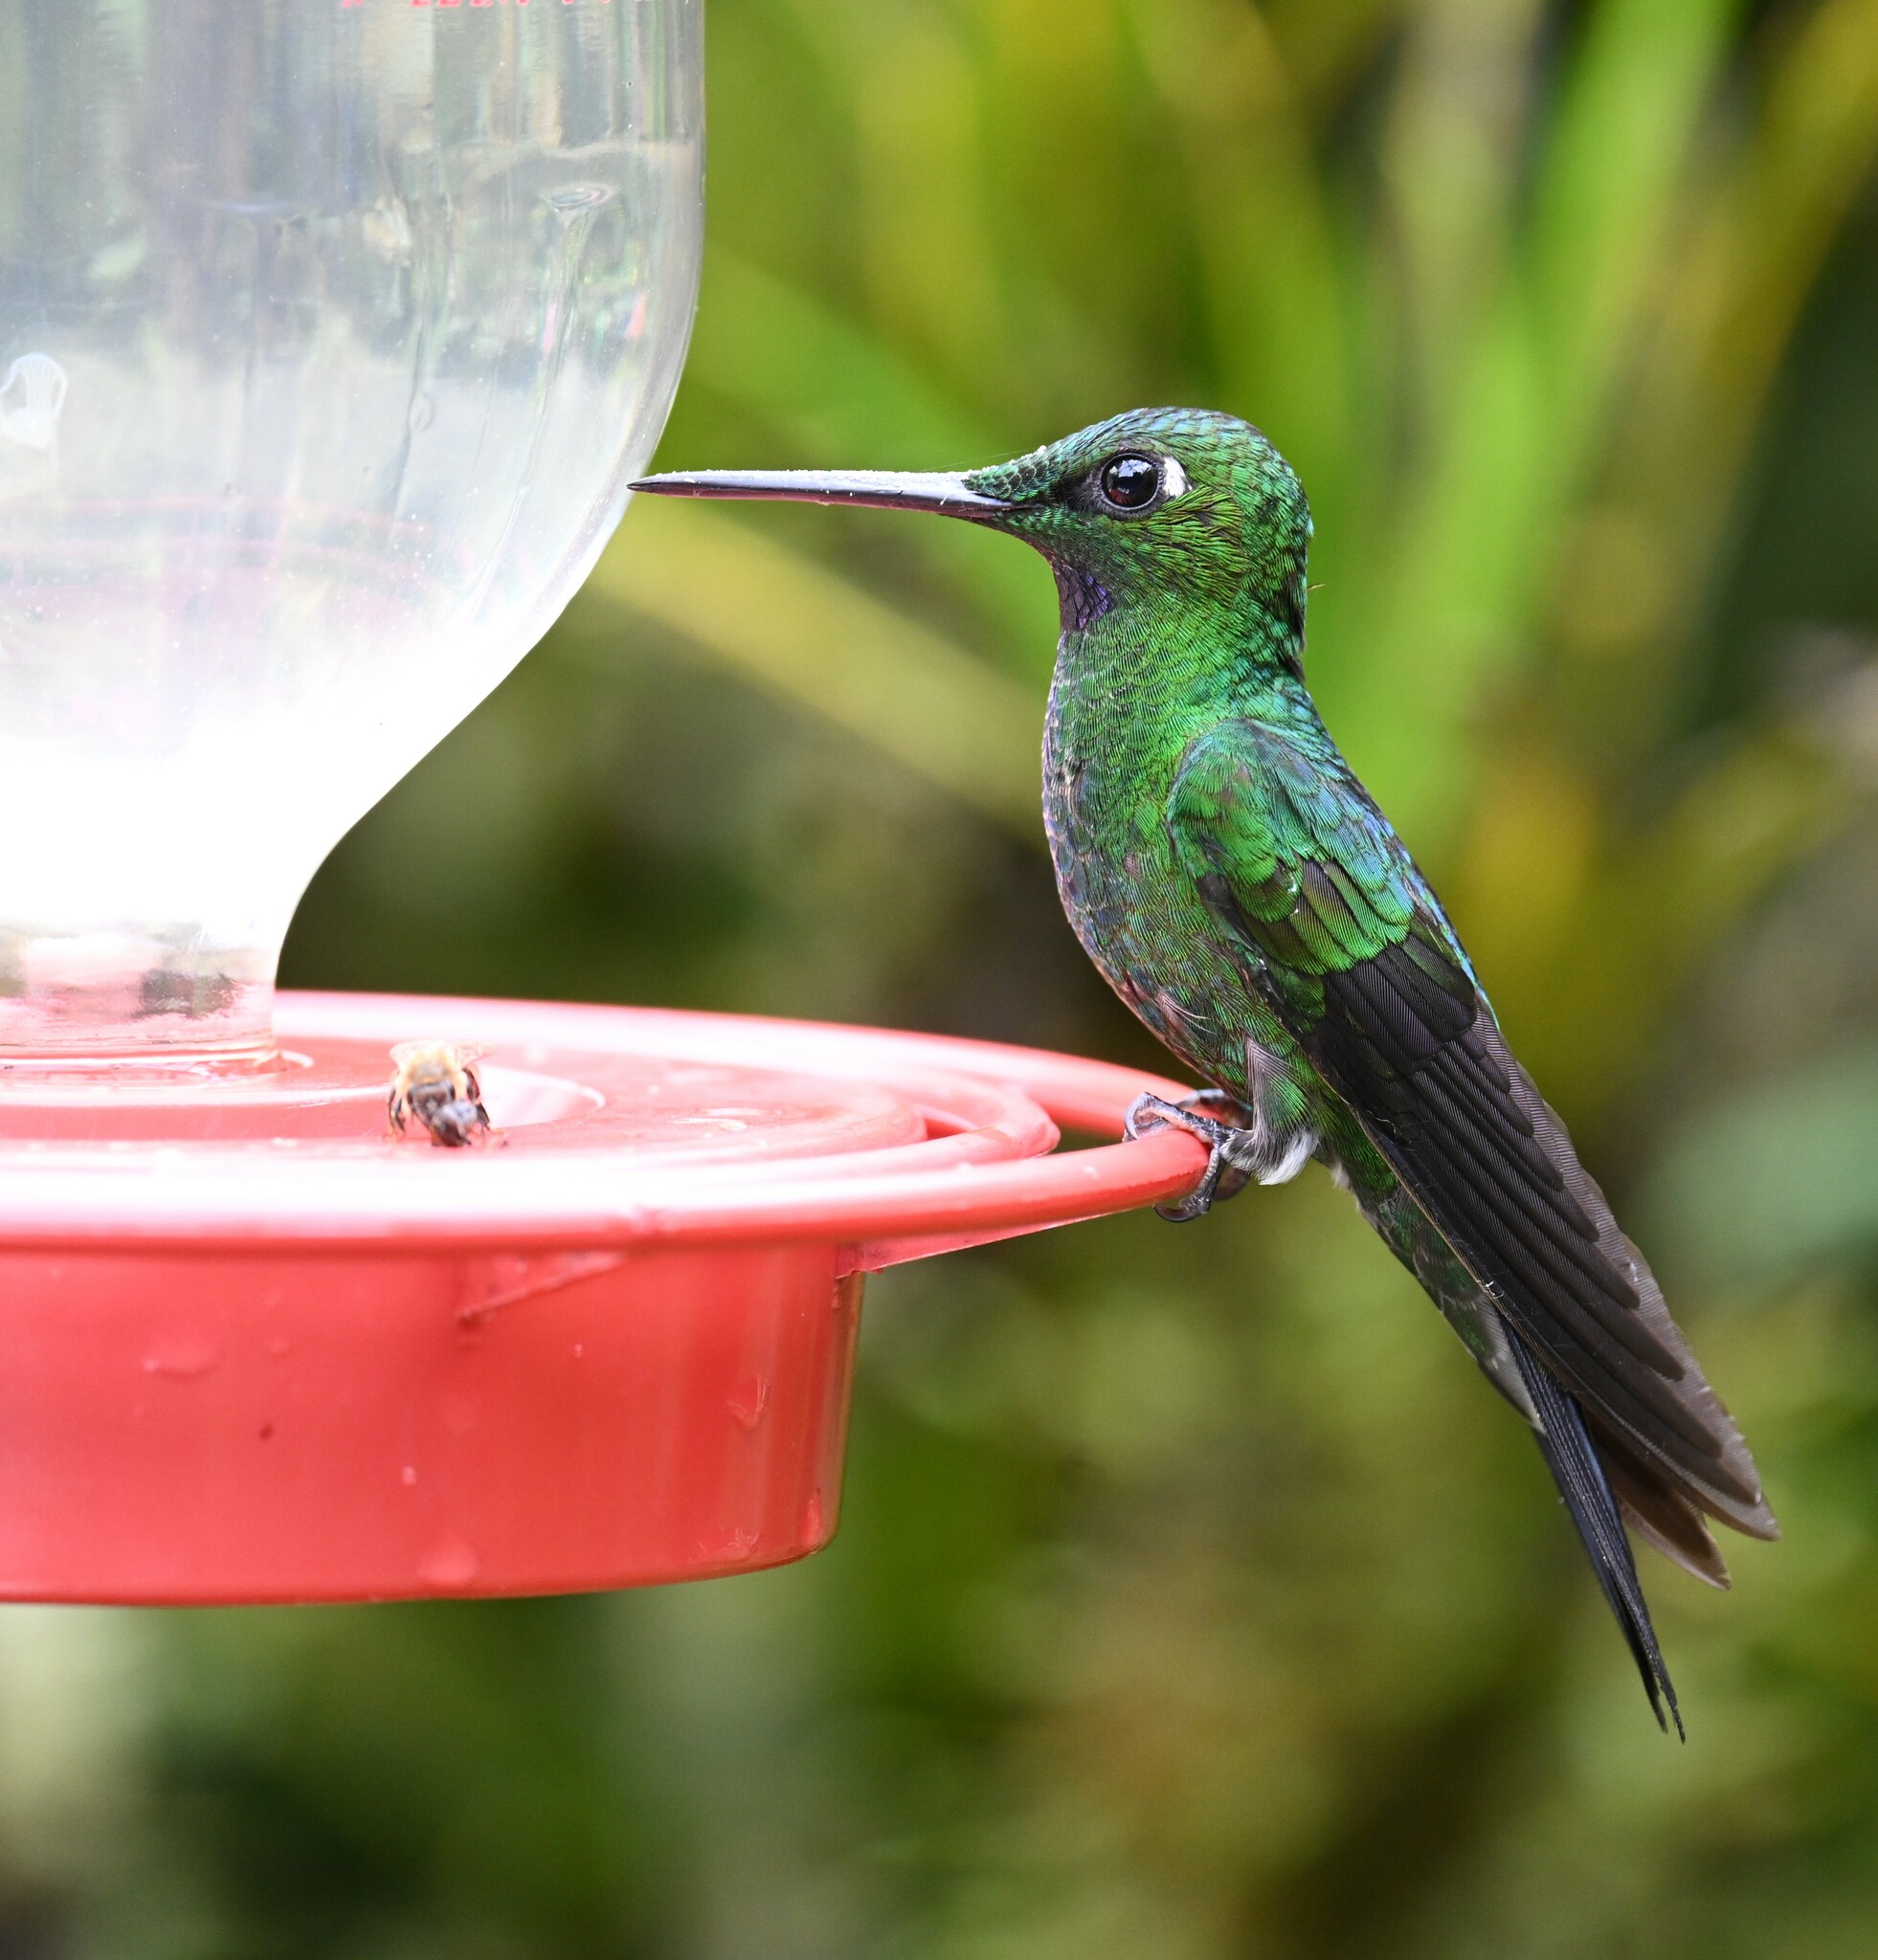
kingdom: Animalia
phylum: Chordata
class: Aves
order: Apodiformes
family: Trochilidae
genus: Heliodoxa
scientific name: Heliodoxa jacula
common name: Green-crowned brilliant
